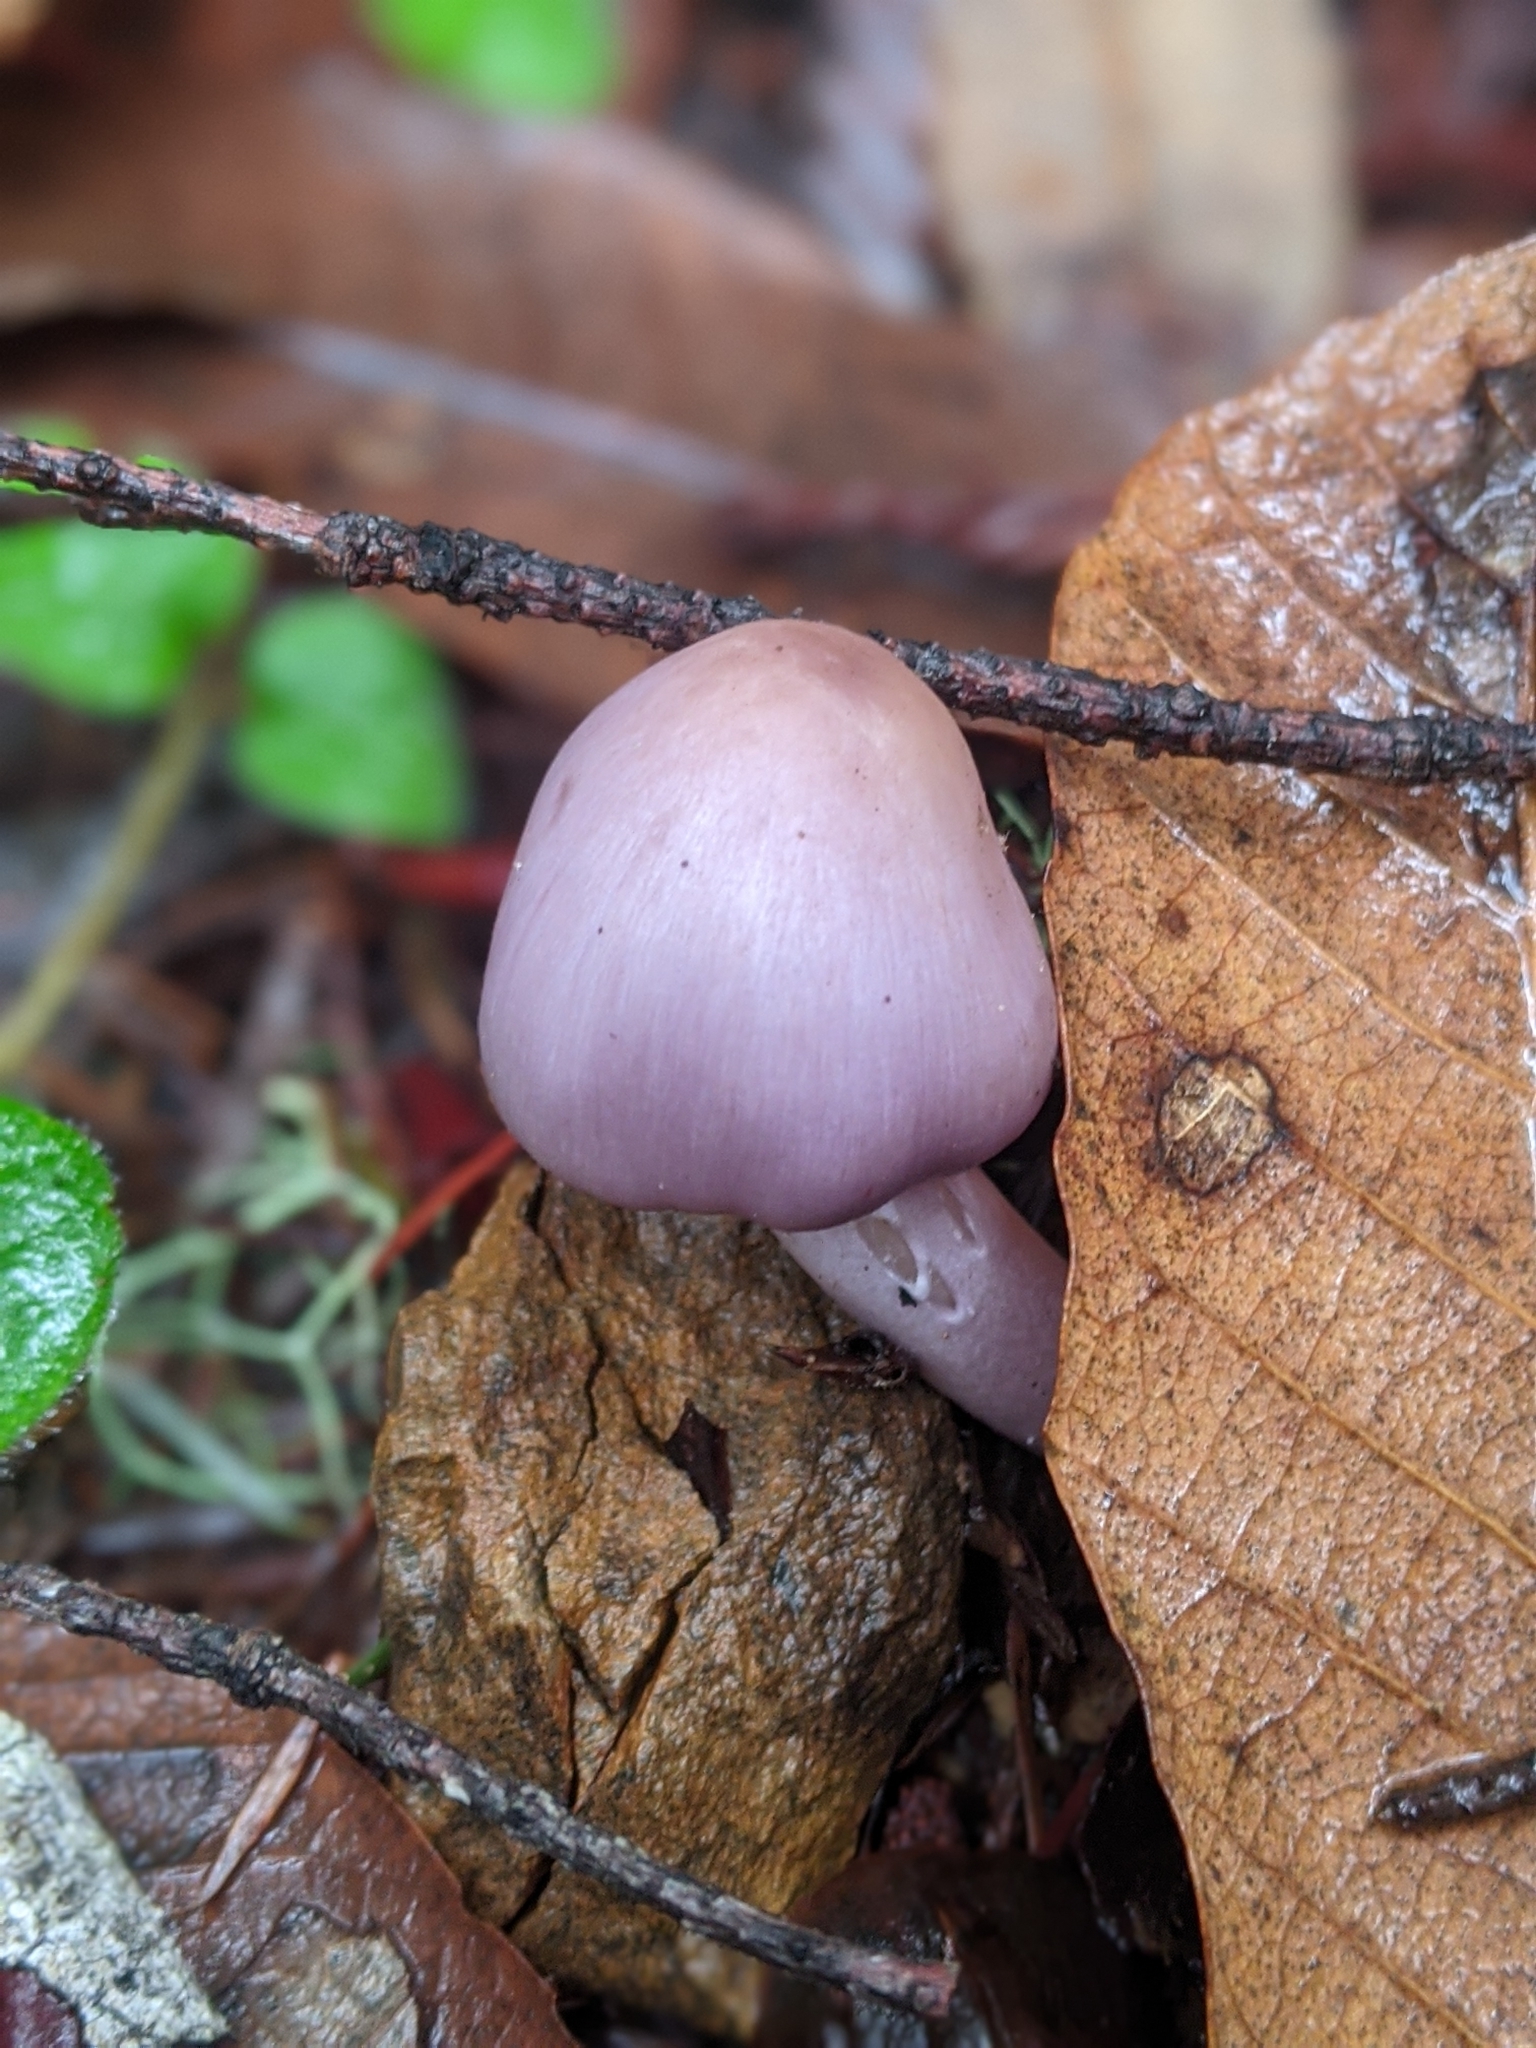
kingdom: Fungi
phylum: Basidiomycota
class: Agaricomycetes
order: Agaricales
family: Inocybaceae
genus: Inocybe
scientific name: Inocybe ionocephala
